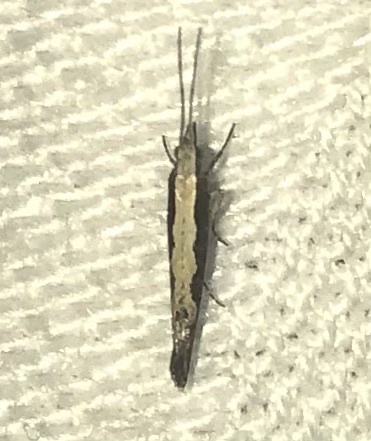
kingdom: Animalia
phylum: Arthropoda
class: Insecta
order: Lepidoptera
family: Plutellidae
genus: Plutella
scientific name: Plutella xylostella
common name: Diamond-back moth
